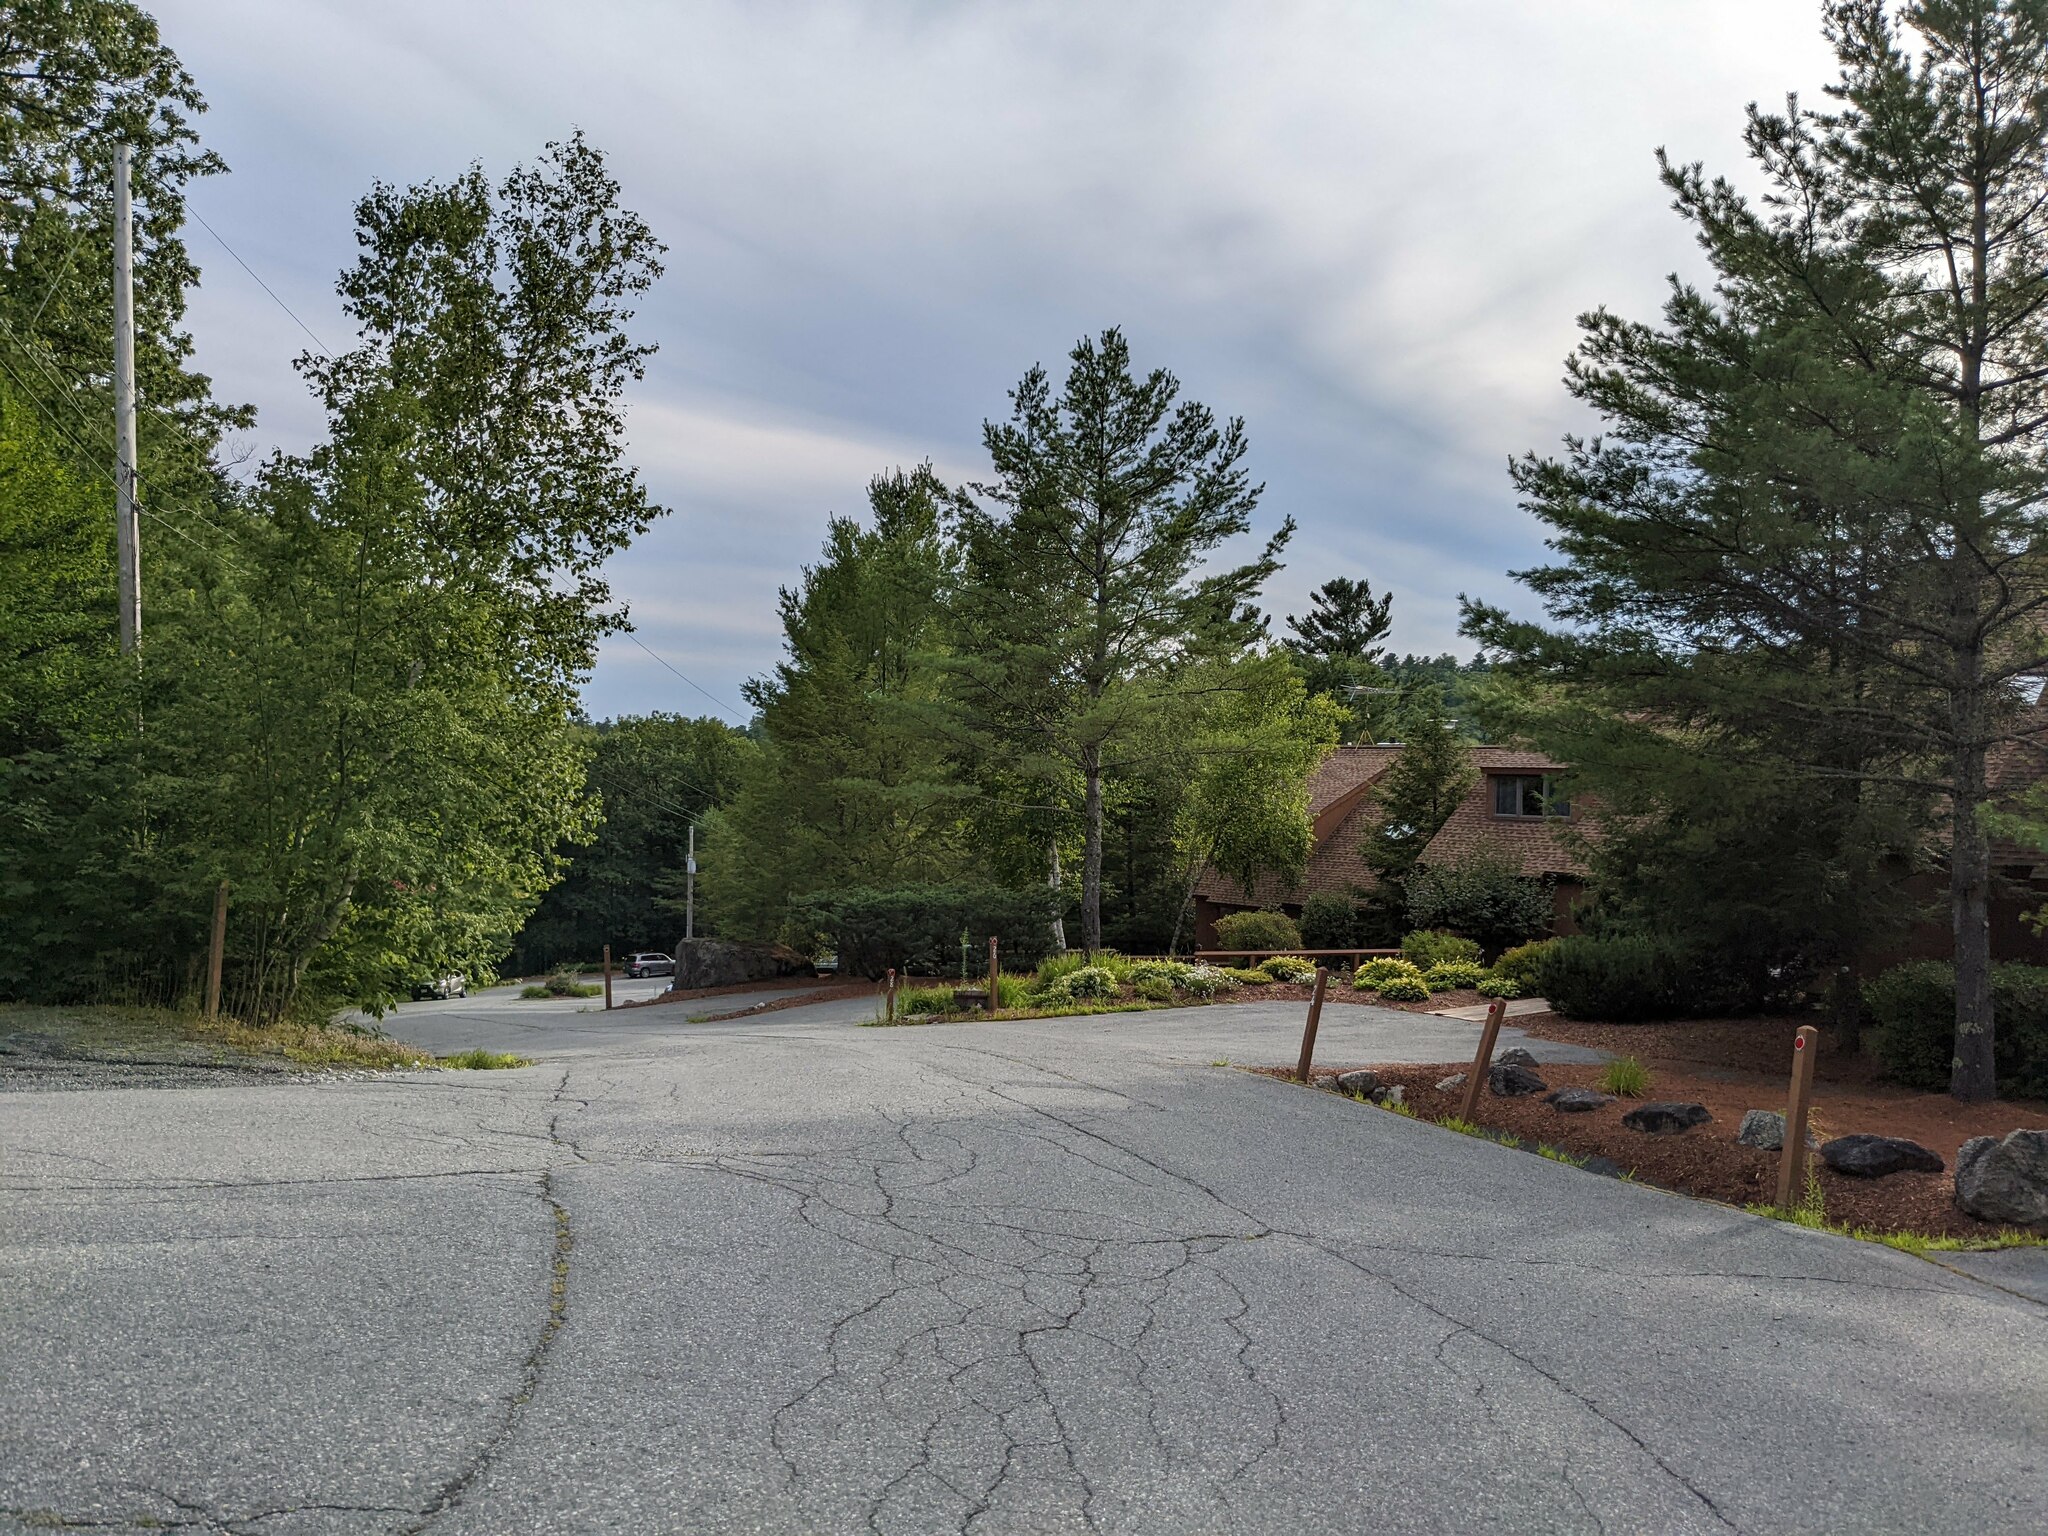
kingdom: Plantae
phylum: Tracheophyta
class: Pinopsida
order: Pinales
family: Pinaceae
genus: Pinus
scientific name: Pinus strobus
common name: Weymouth pine
